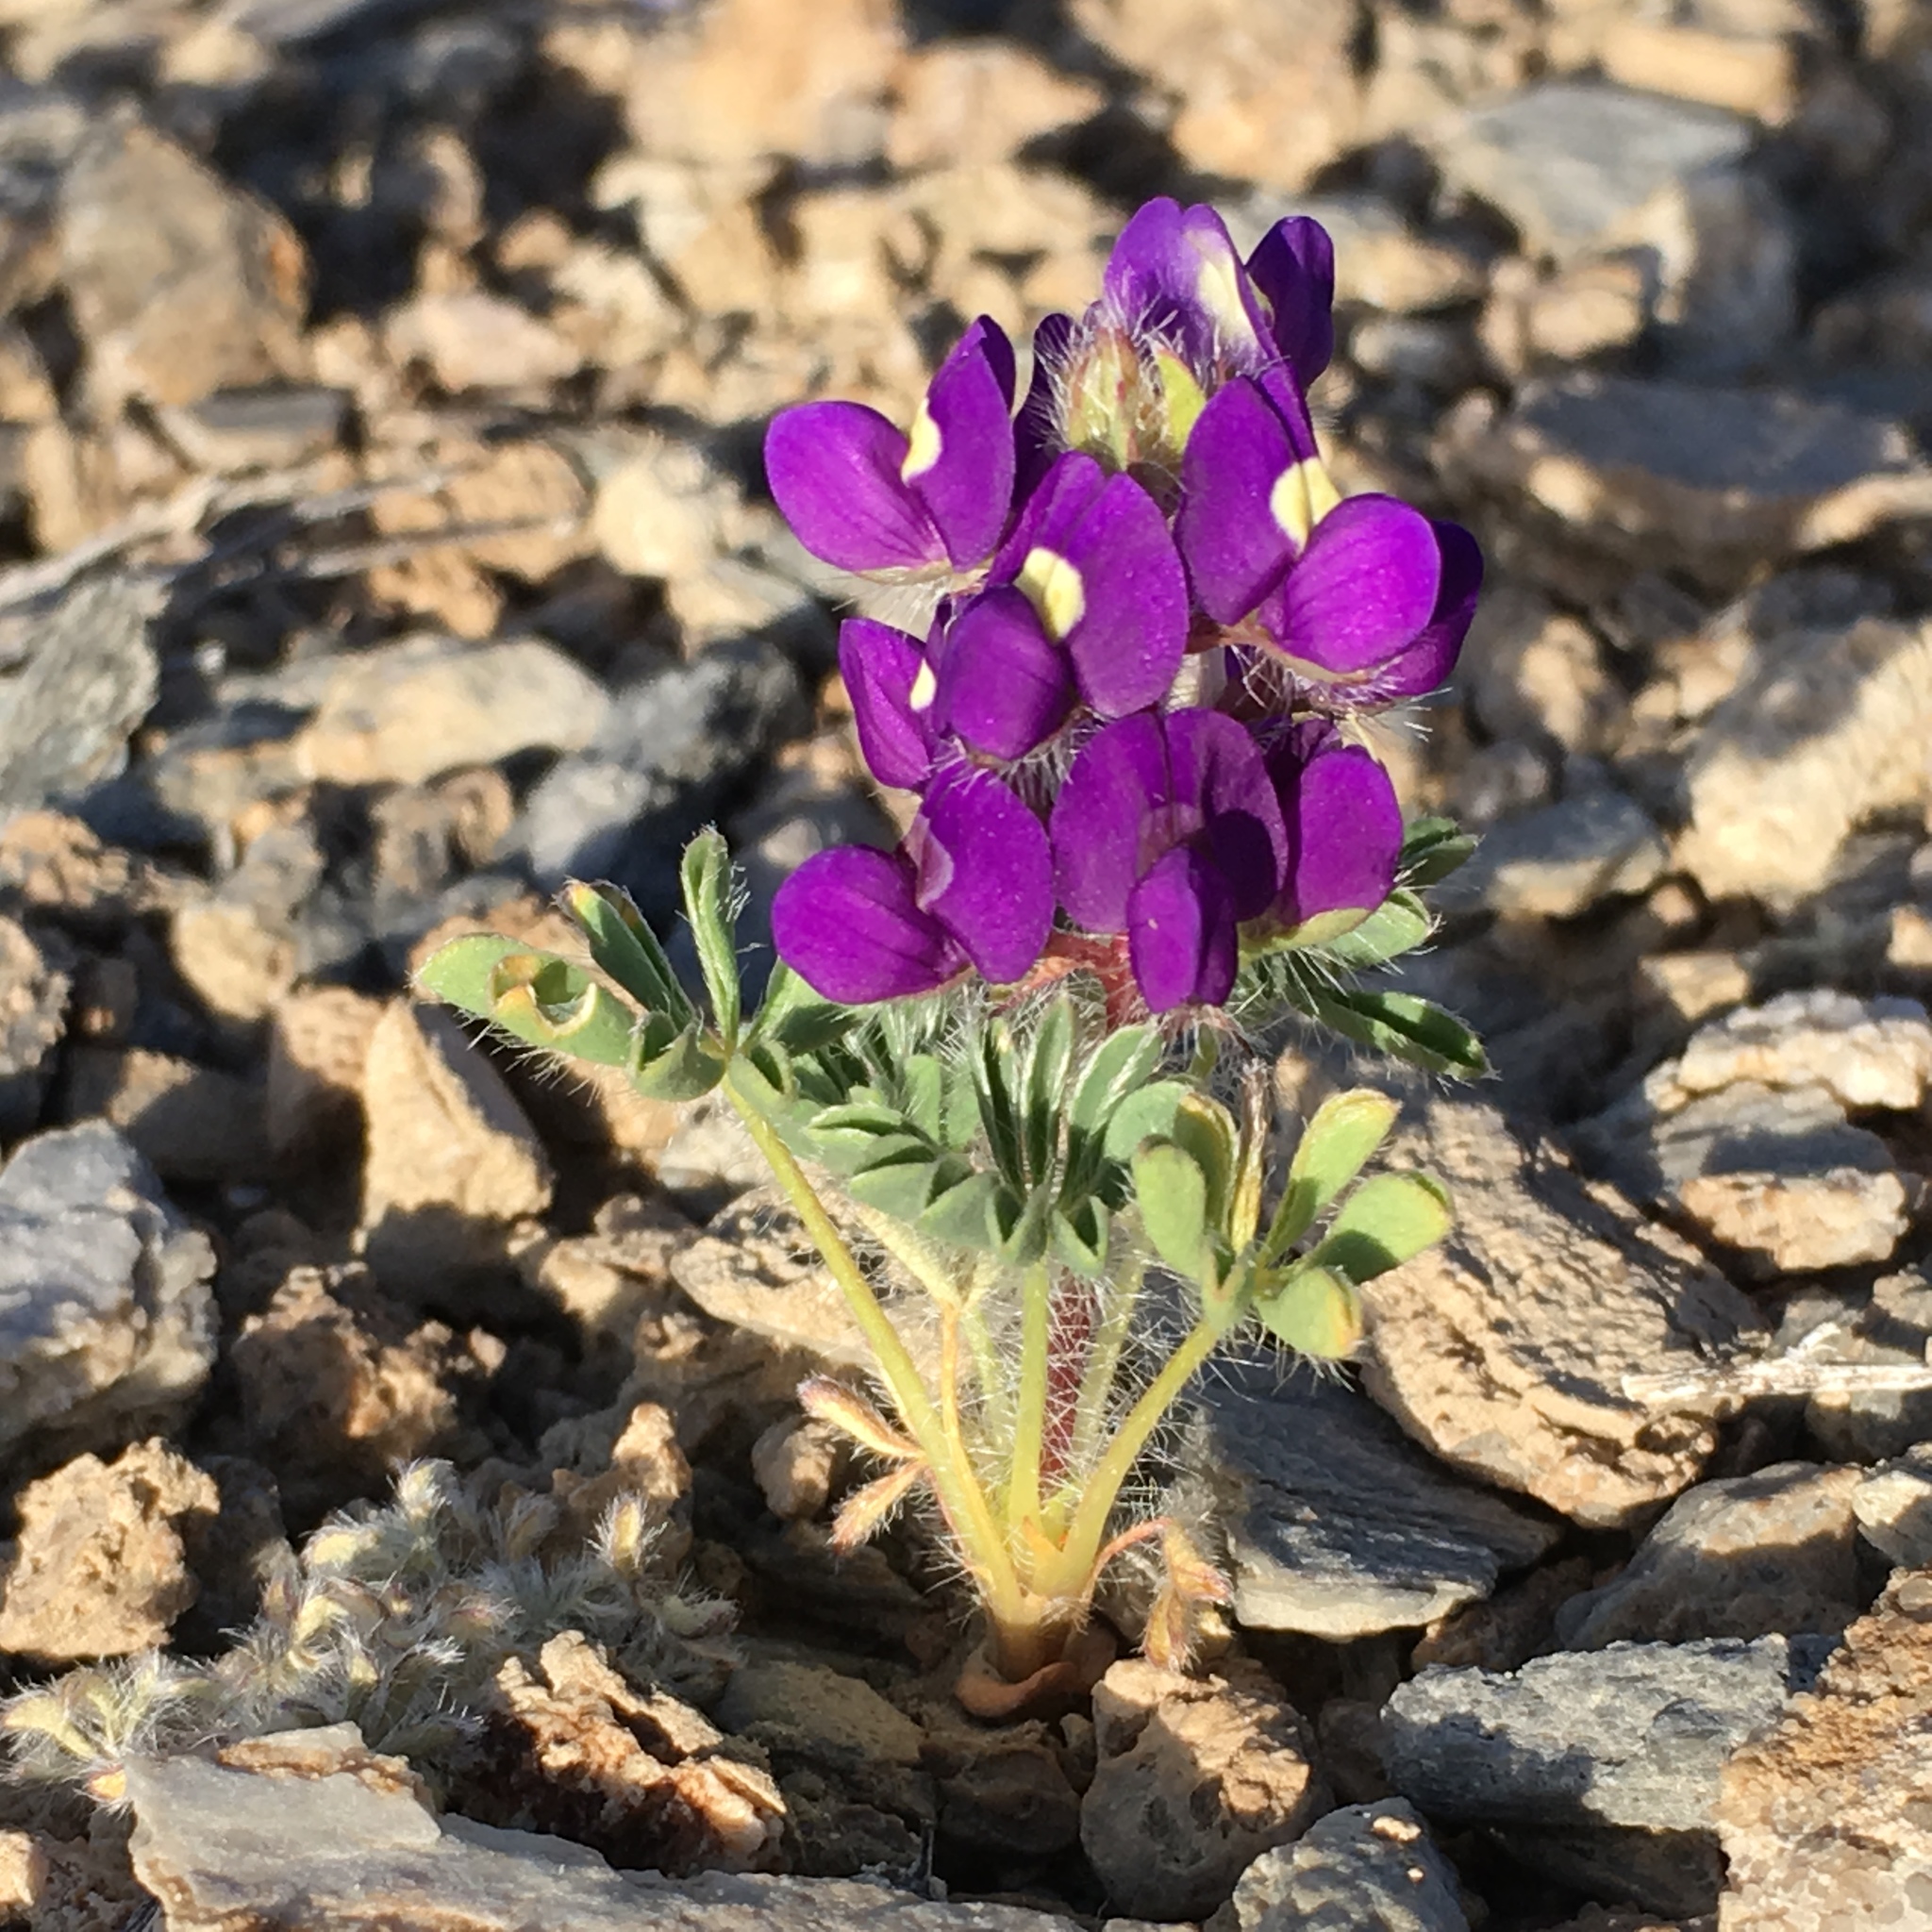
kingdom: Plantae
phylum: Tracheophyta
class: Magnoliopsida
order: Fabales
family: Fabaceae
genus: Lupinus
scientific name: Lupinus flavoculatus
